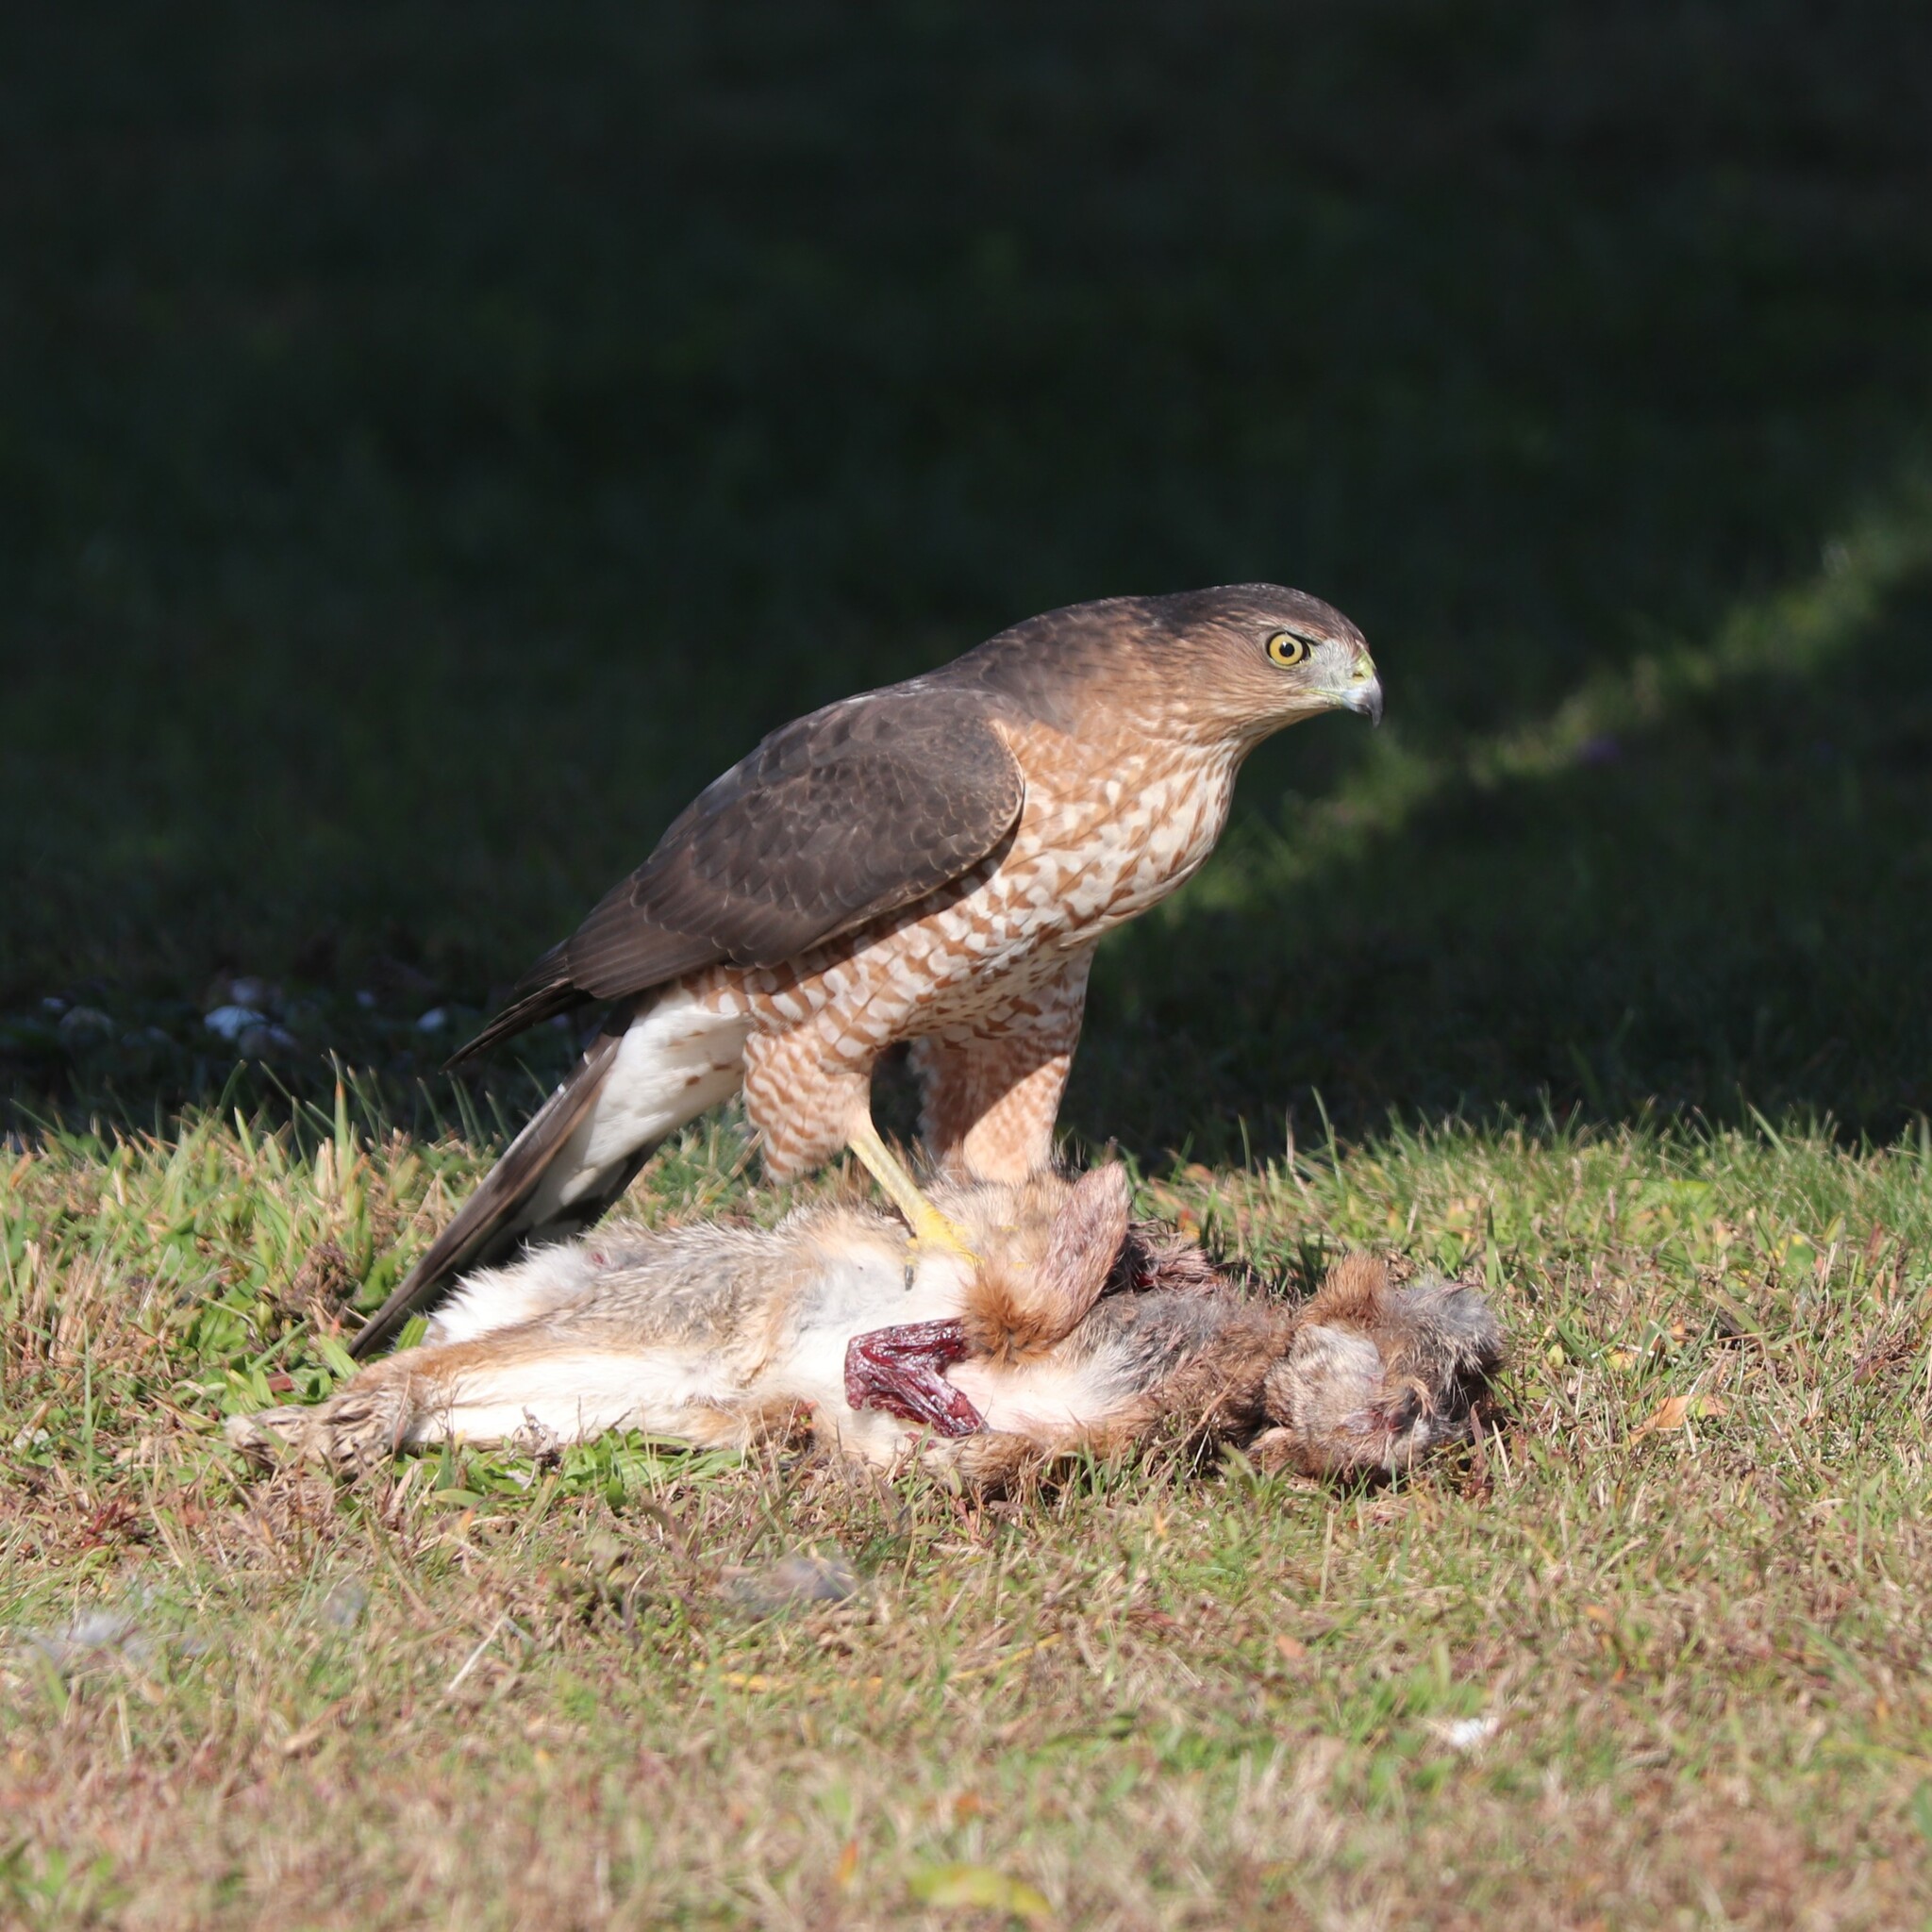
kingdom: Animalia
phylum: Chordata
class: Aves
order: Accipitriformes
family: Accipitridae
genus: Accipiter
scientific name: Accipiter cooperii
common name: Cooper's hawk
